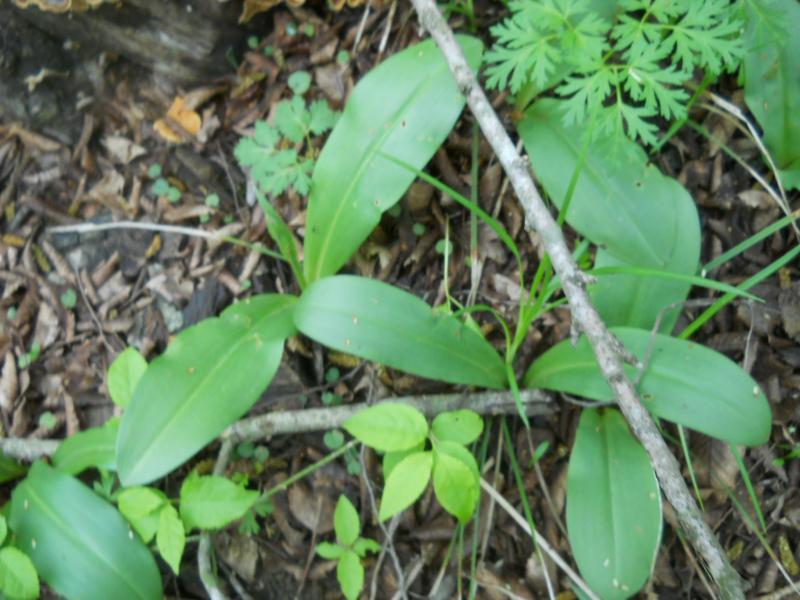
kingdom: Plantae
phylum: Tracheophyta
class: Liliopsida
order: Asparagales
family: Orchidaceae
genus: Orchis
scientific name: Orchis militaris
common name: Military orchid
